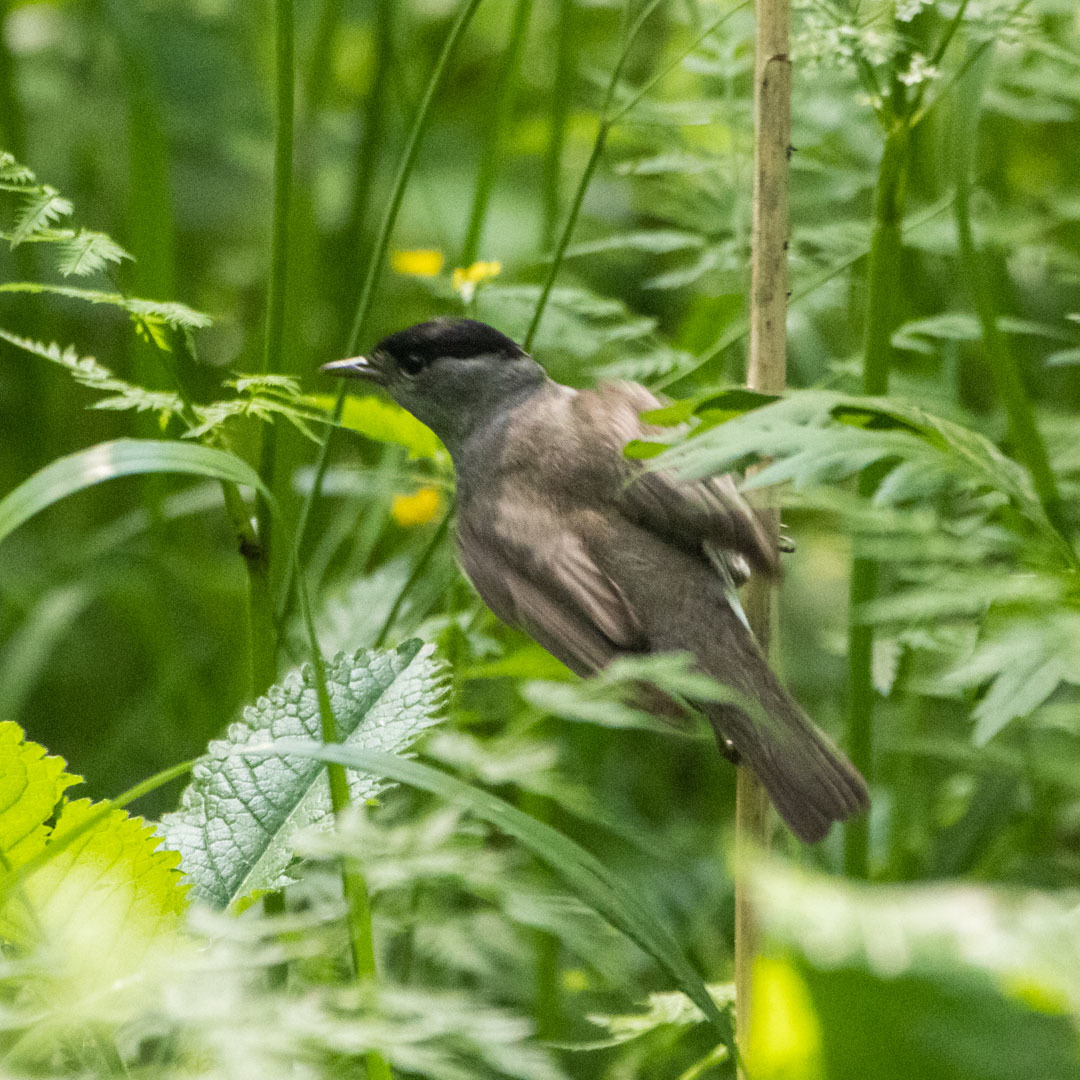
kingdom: Animalia
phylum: Chordata
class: Aves
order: Passeriformes
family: Sylviidae
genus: Sylvia
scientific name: Sylvia atricapilla
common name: Eurasian blackcap
